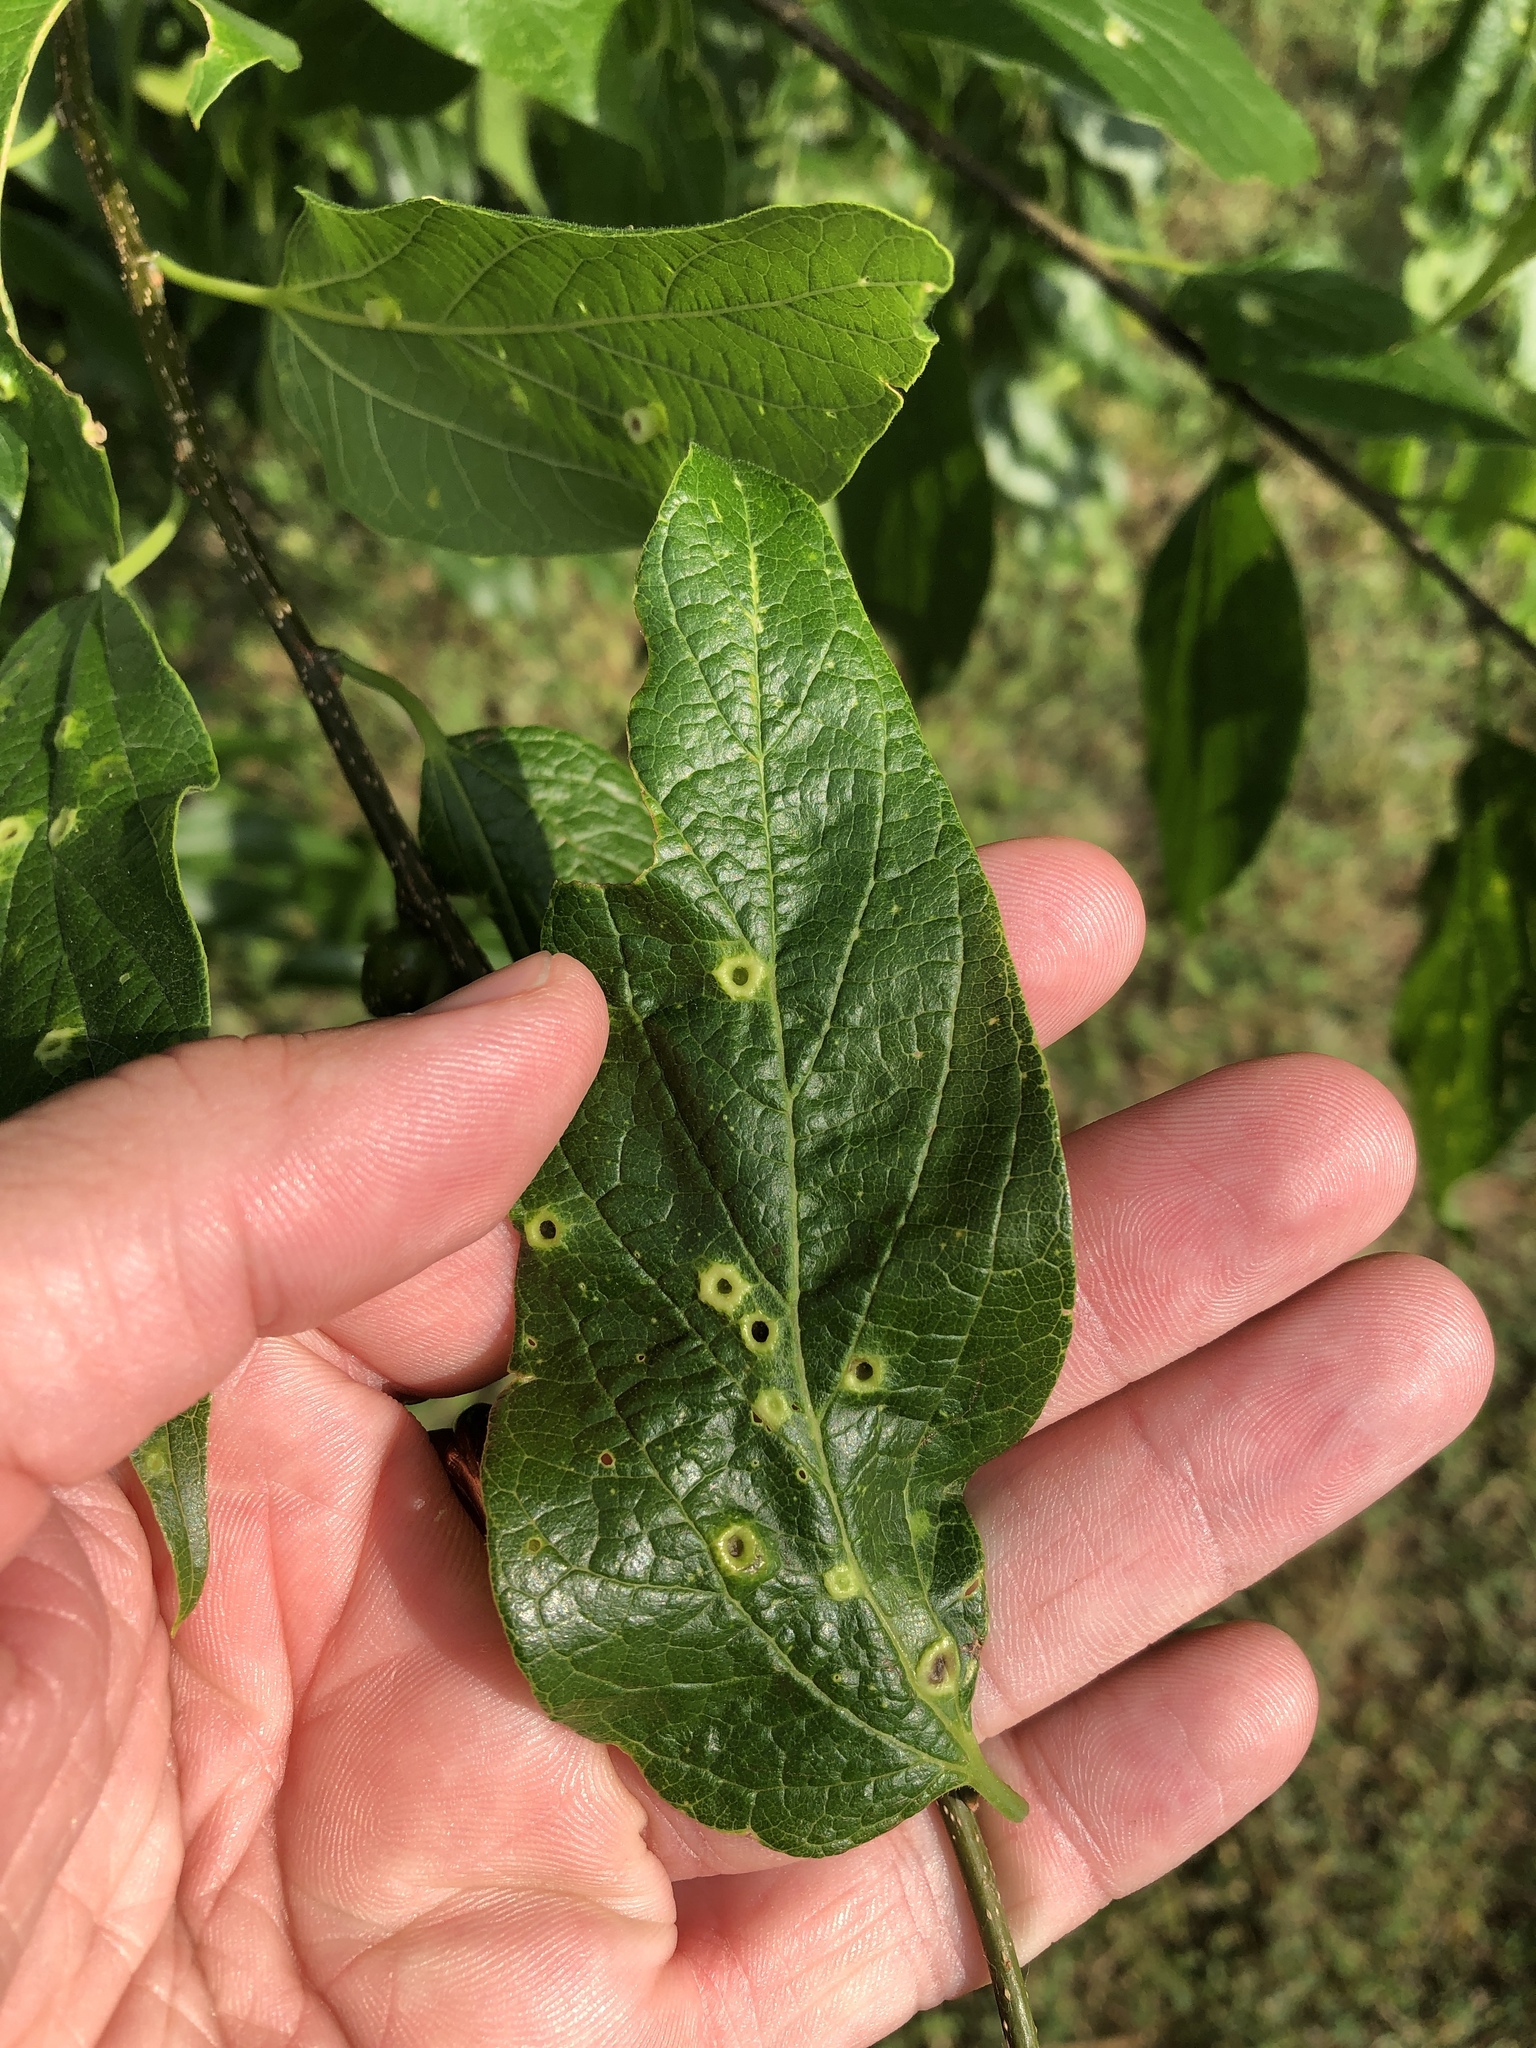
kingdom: Animalia
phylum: Arthropoda
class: Insecta
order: Hemiptera
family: Aphalaridae
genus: Pachypsylla
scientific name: Pachypsylla celtidismamma
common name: Hackberry nipplegall psyllid
